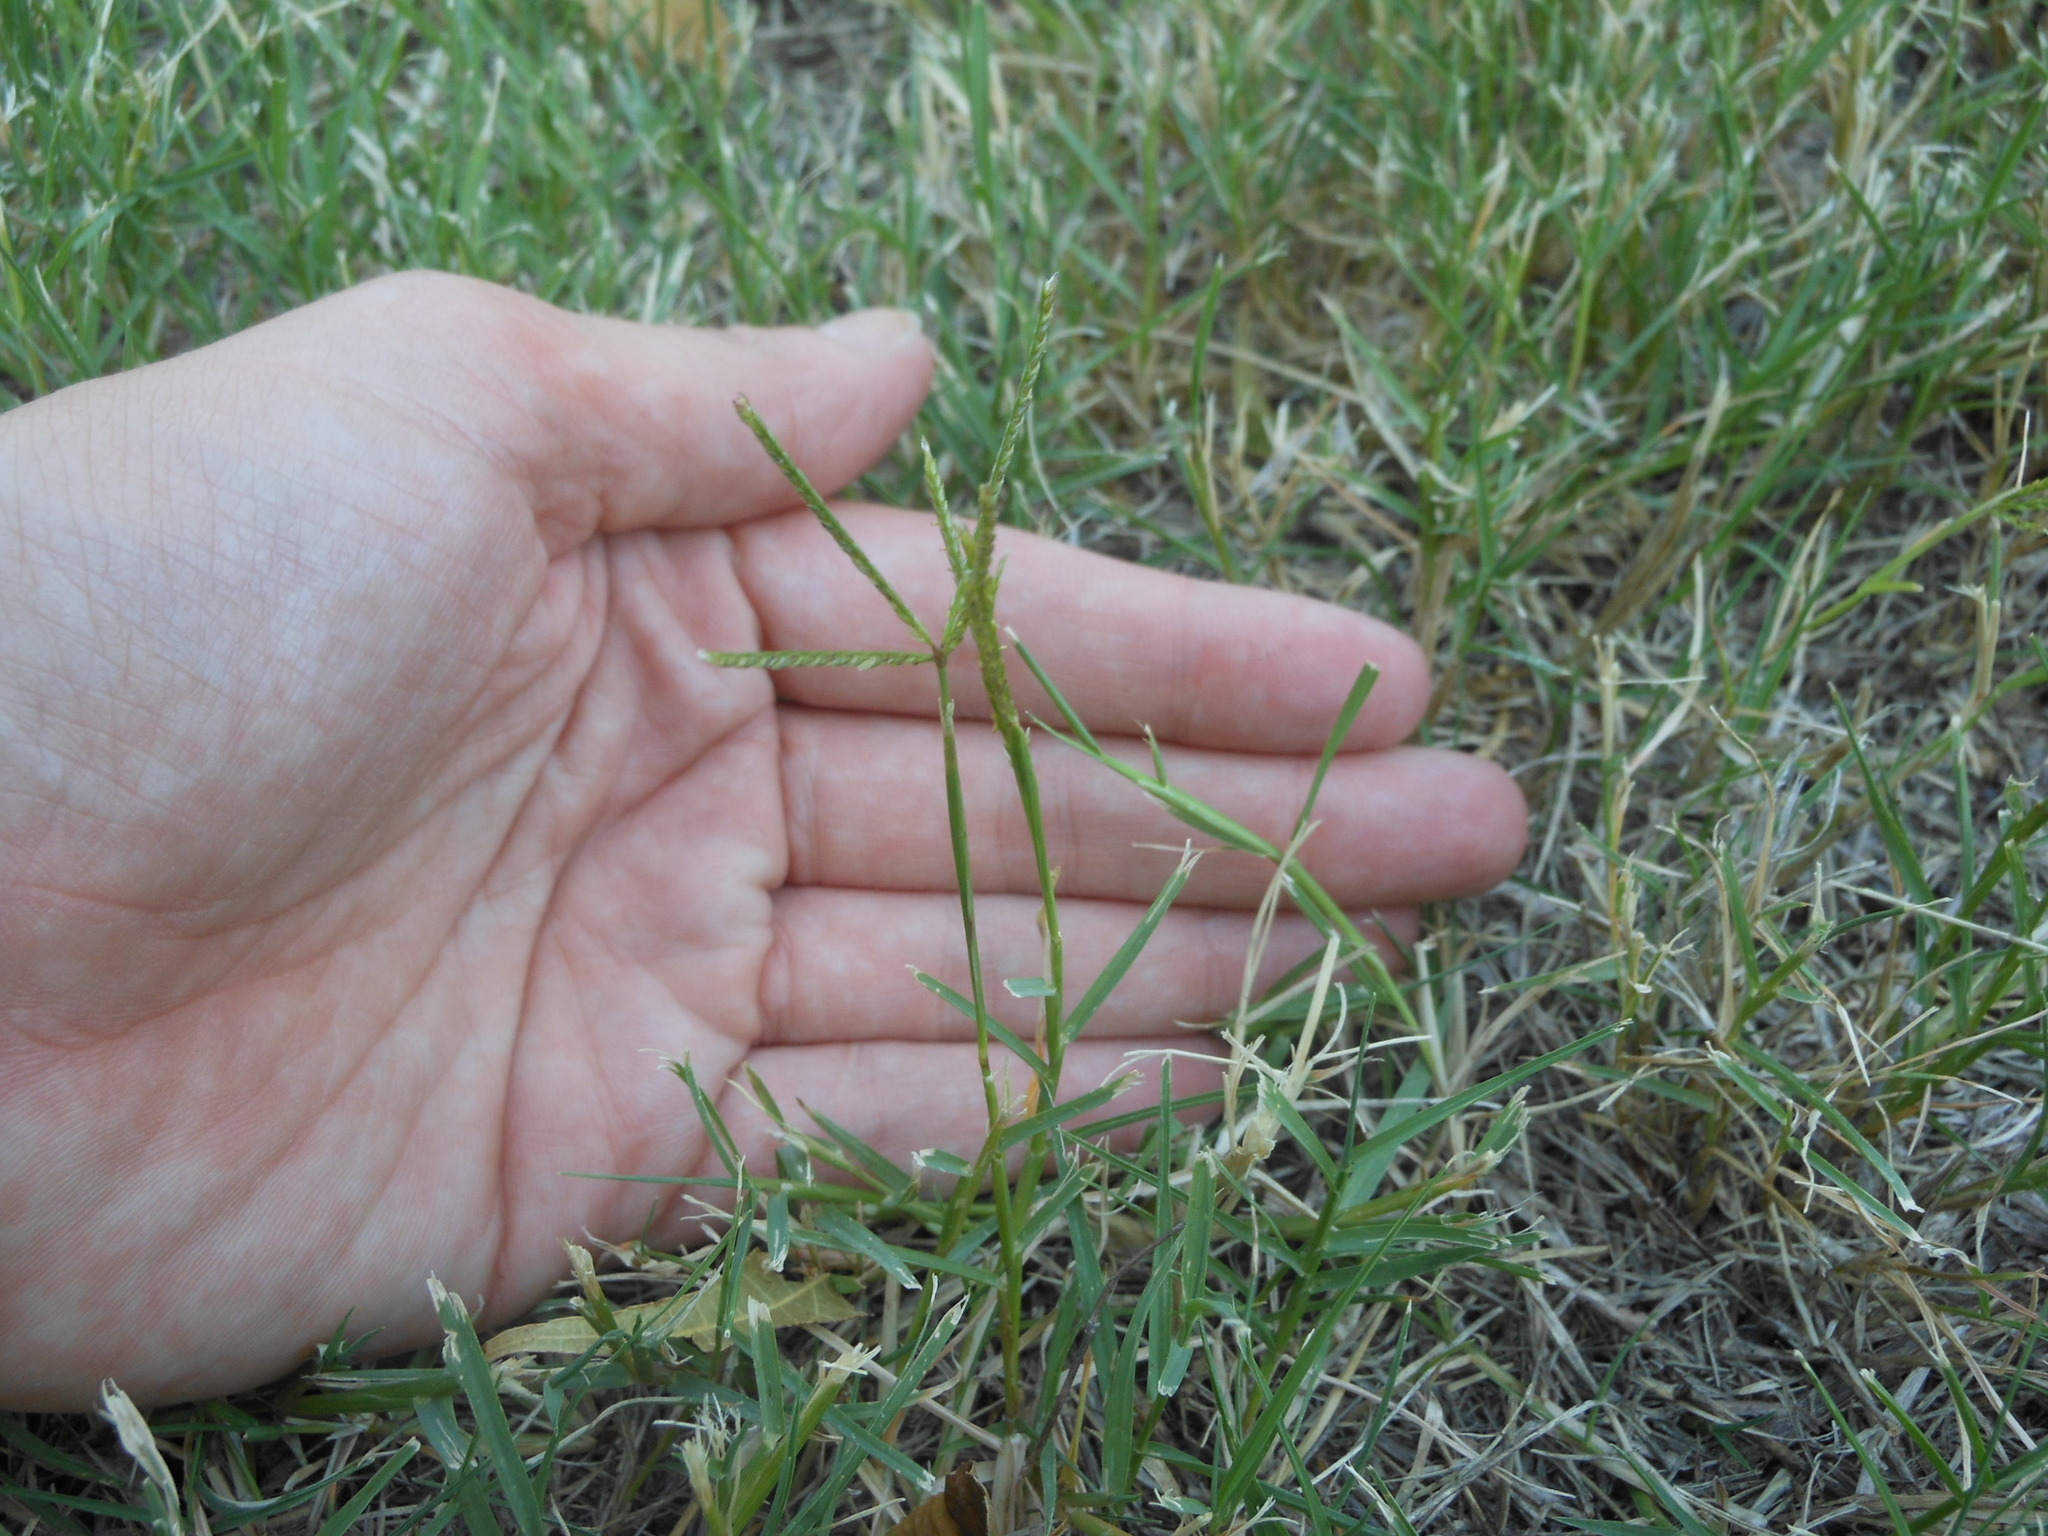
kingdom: Plantae
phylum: Tracheophyta
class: Liliopsida
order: Poales
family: Poaceae
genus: Cynodon
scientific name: Cynodon dactylon
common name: Bermuda grass
